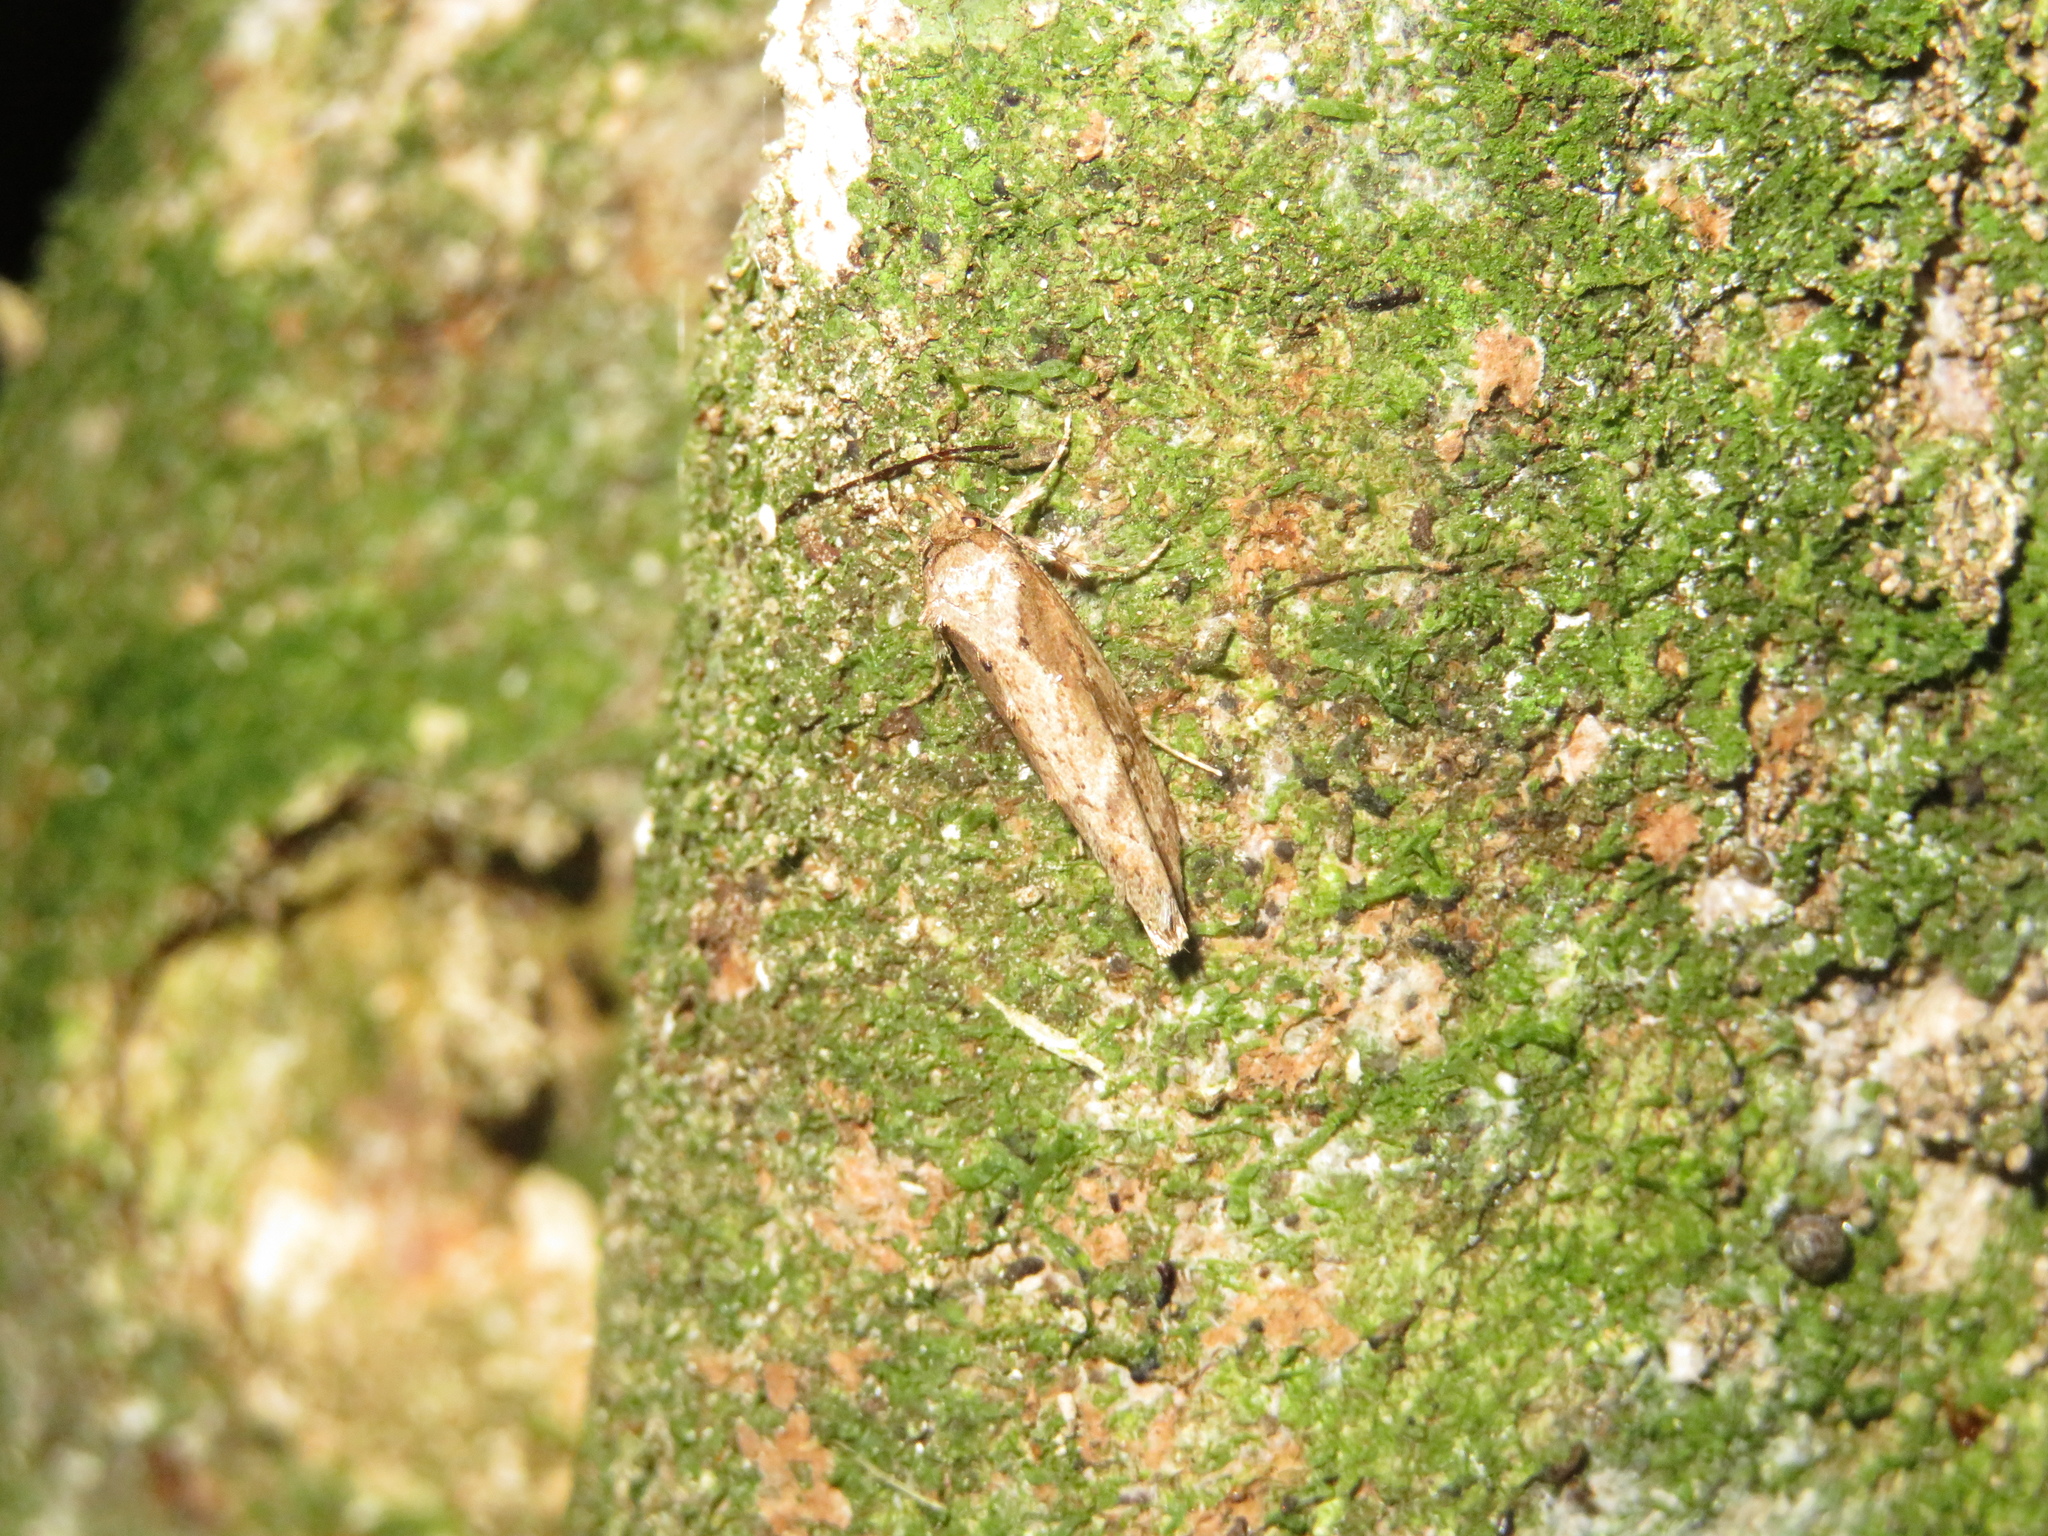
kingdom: Animalia
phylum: Arthropoda
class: Insecta
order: Lepidoptera
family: Oecophoridae
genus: Atomotricha
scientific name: Atomotricha isogama
